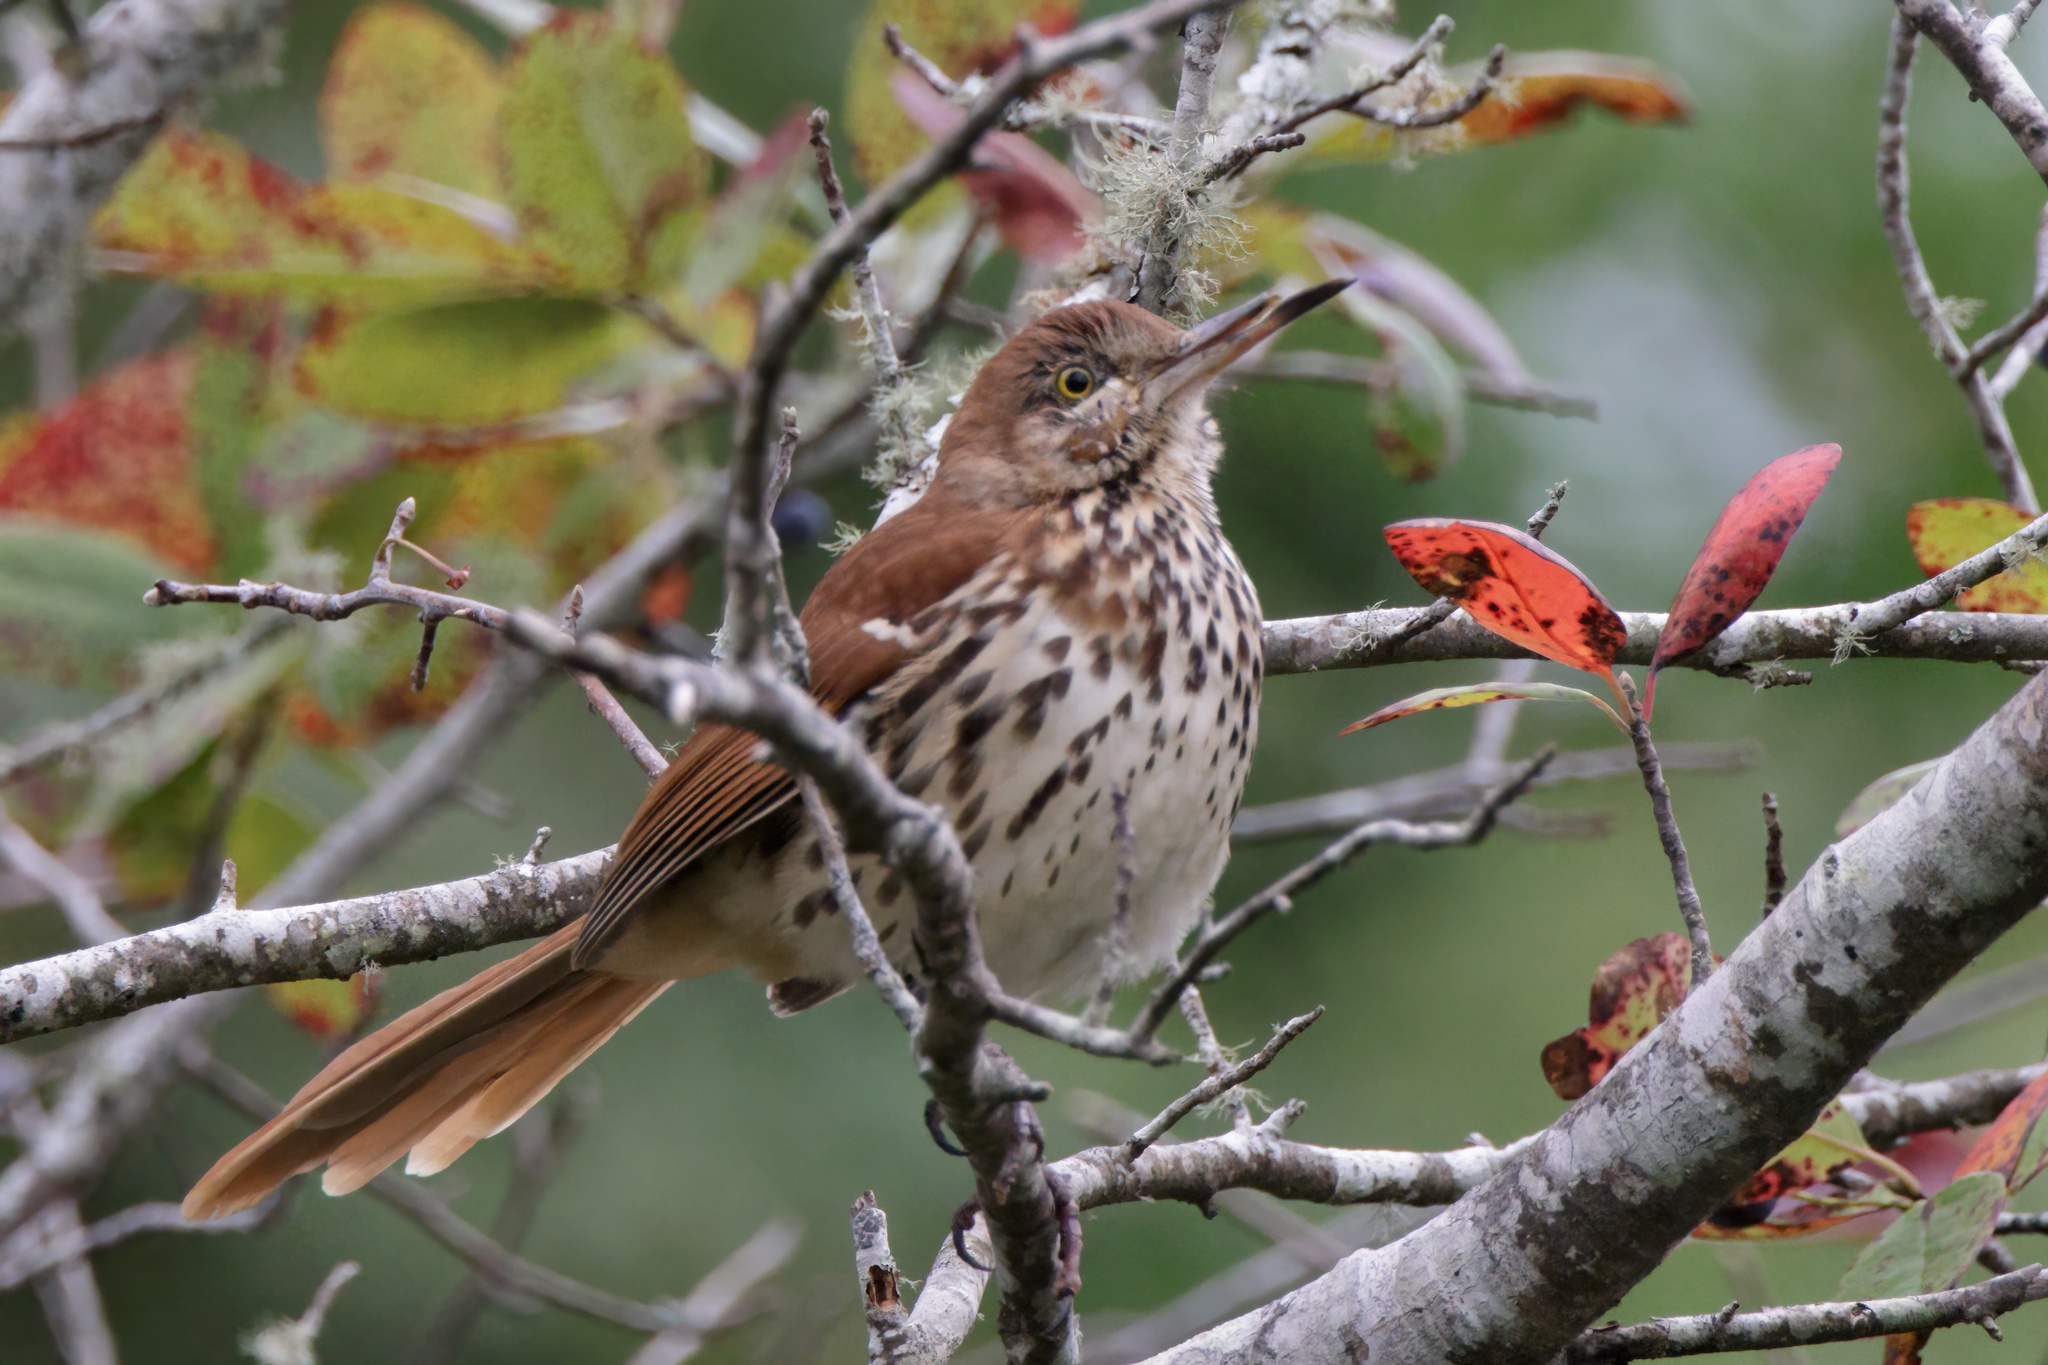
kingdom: Animalia
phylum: Chordata
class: Aves
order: Passeriformes
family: Mimidae
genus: Toxostoma
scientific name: Toxostoma rufum
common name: Brown thrasher
